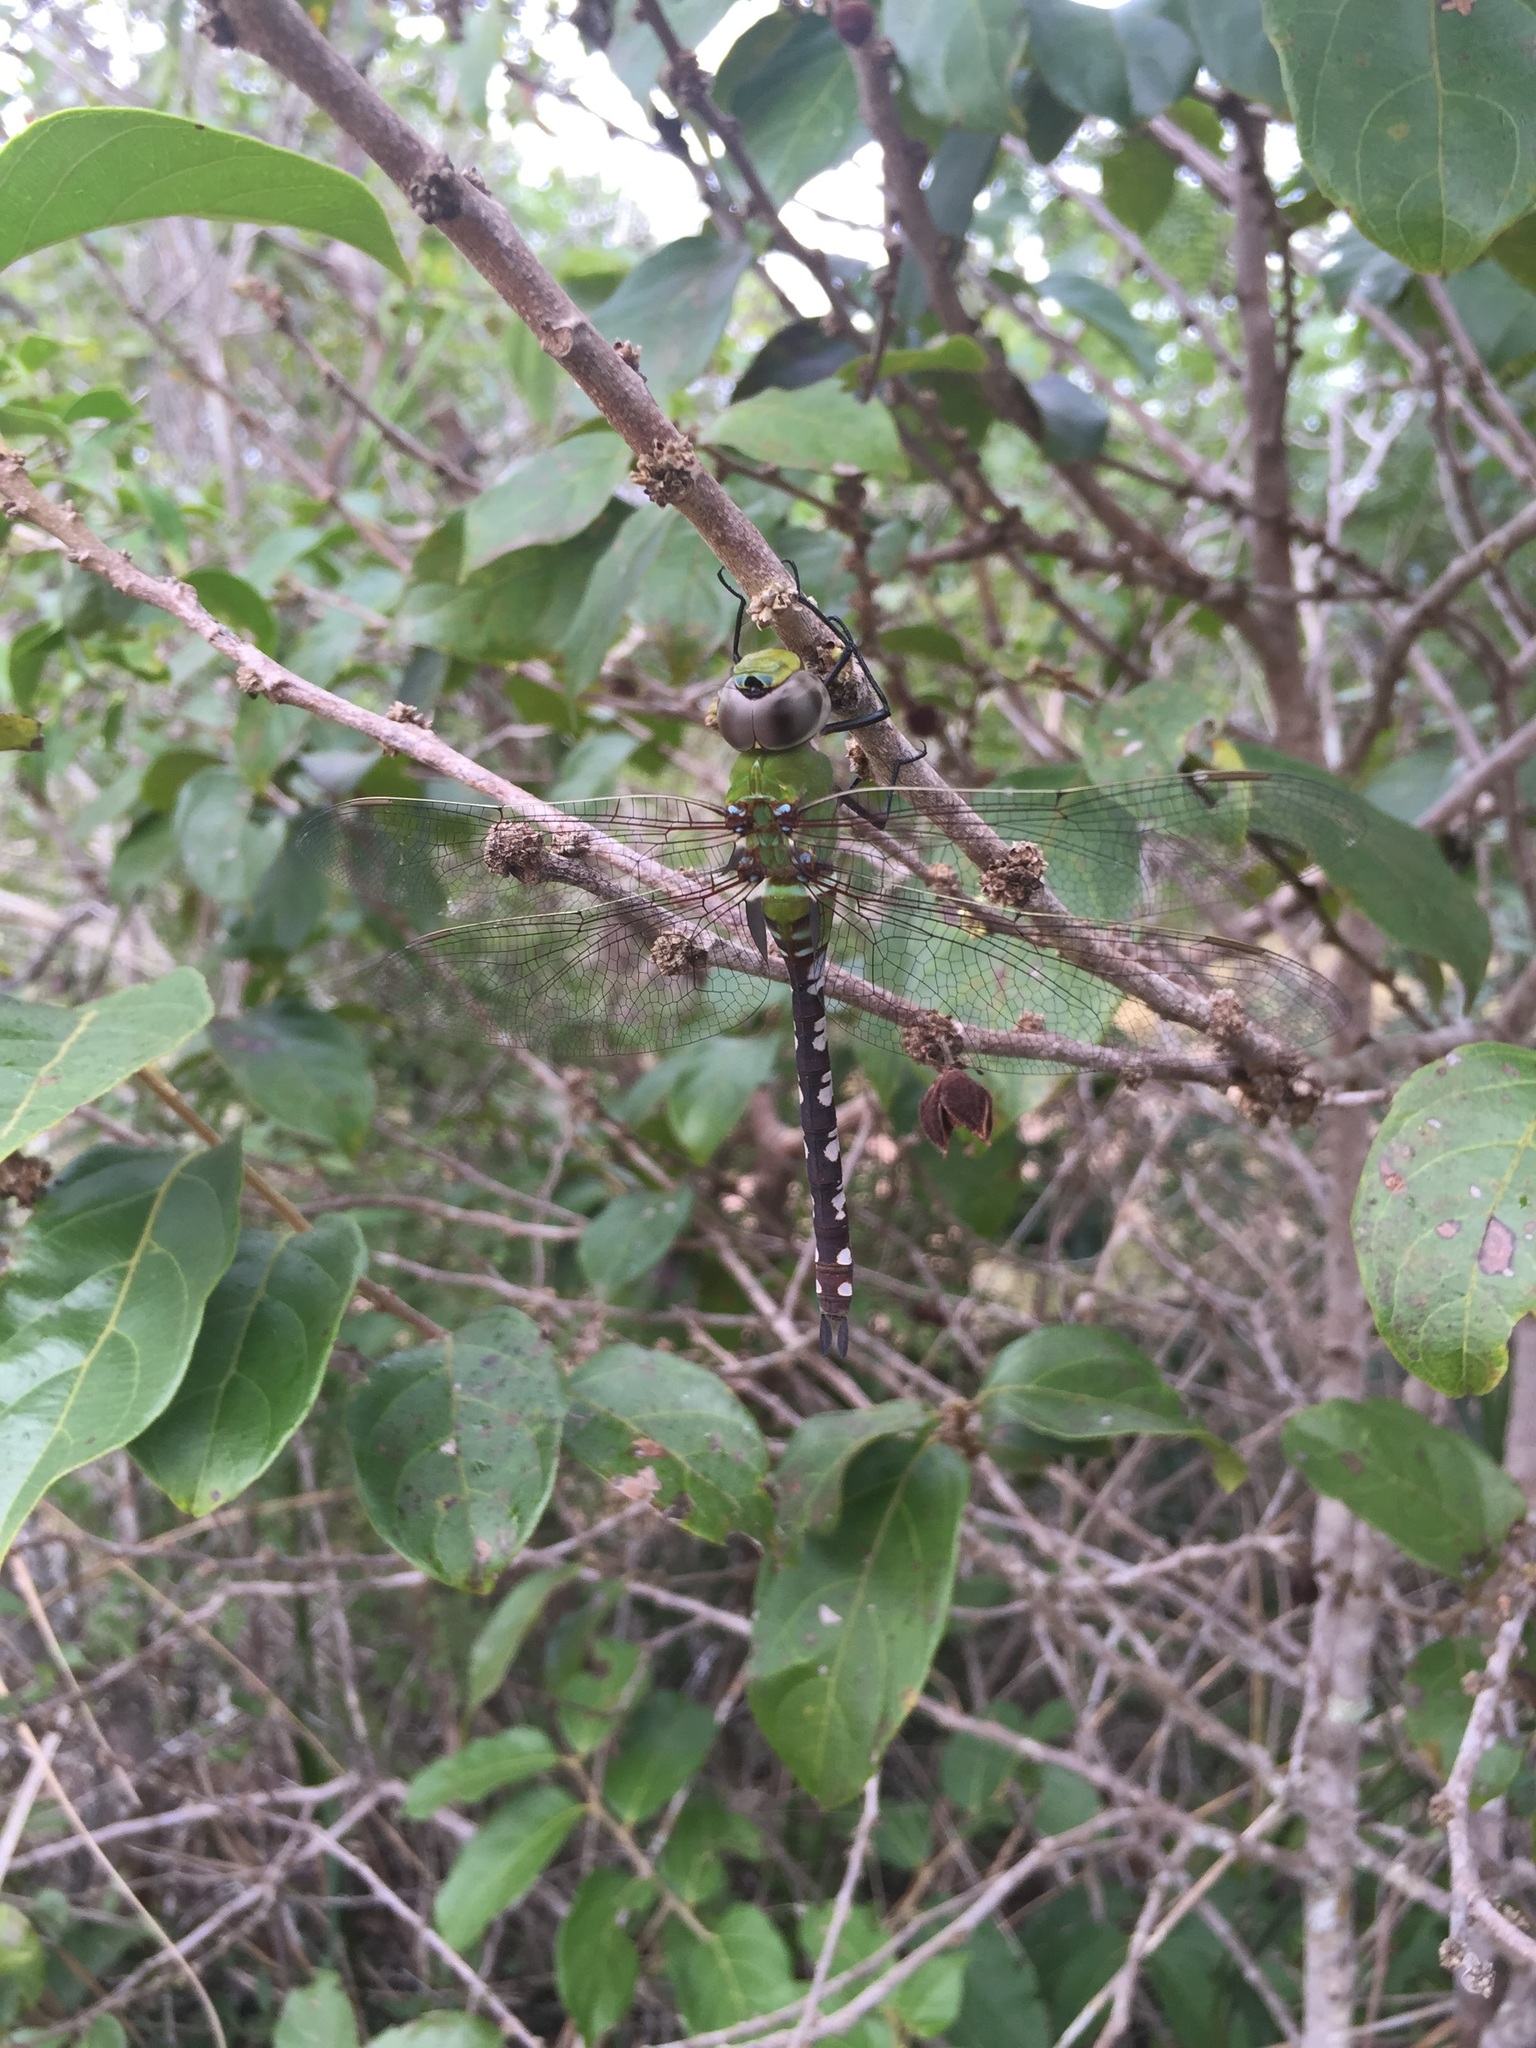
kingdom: Animalia
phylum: Arthropoda
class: Insecta
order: Odonata
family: Aeshnidae
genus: Anax
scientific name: Anax amazili
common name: Amazon darner
